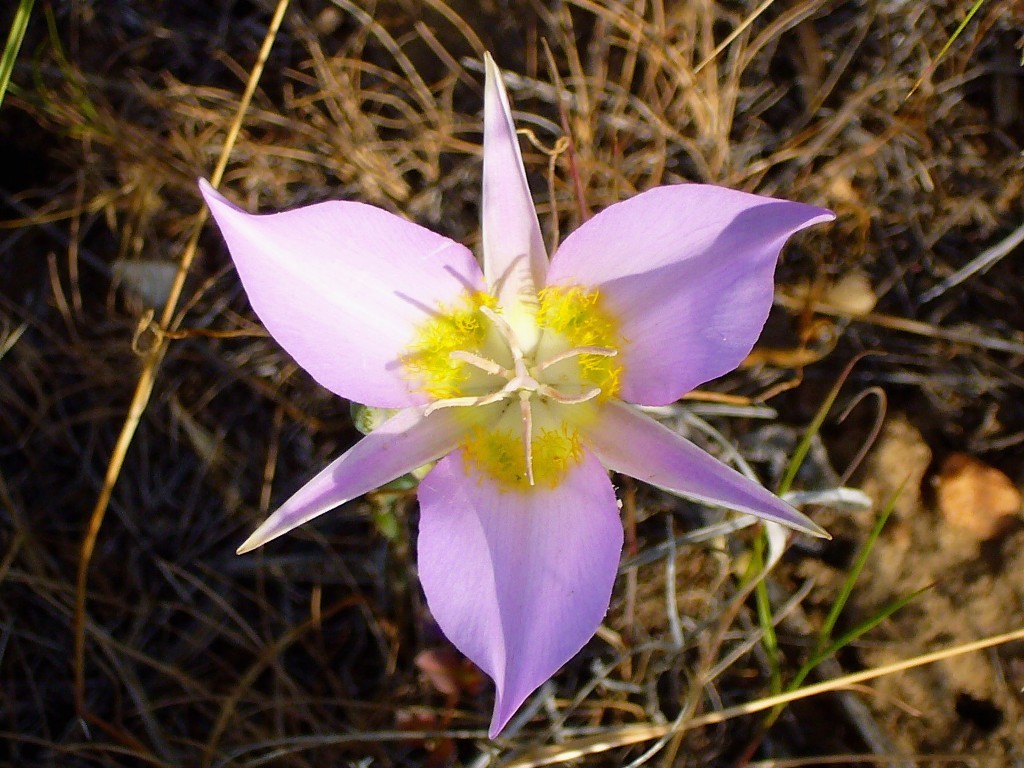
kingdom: Plantae
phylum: Tracheophyta
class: Liliopsida
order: Liliales
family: Liliaceae
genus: Calochortus
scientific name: Calochortus macrocarpus
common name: Green-band mariposa lily
